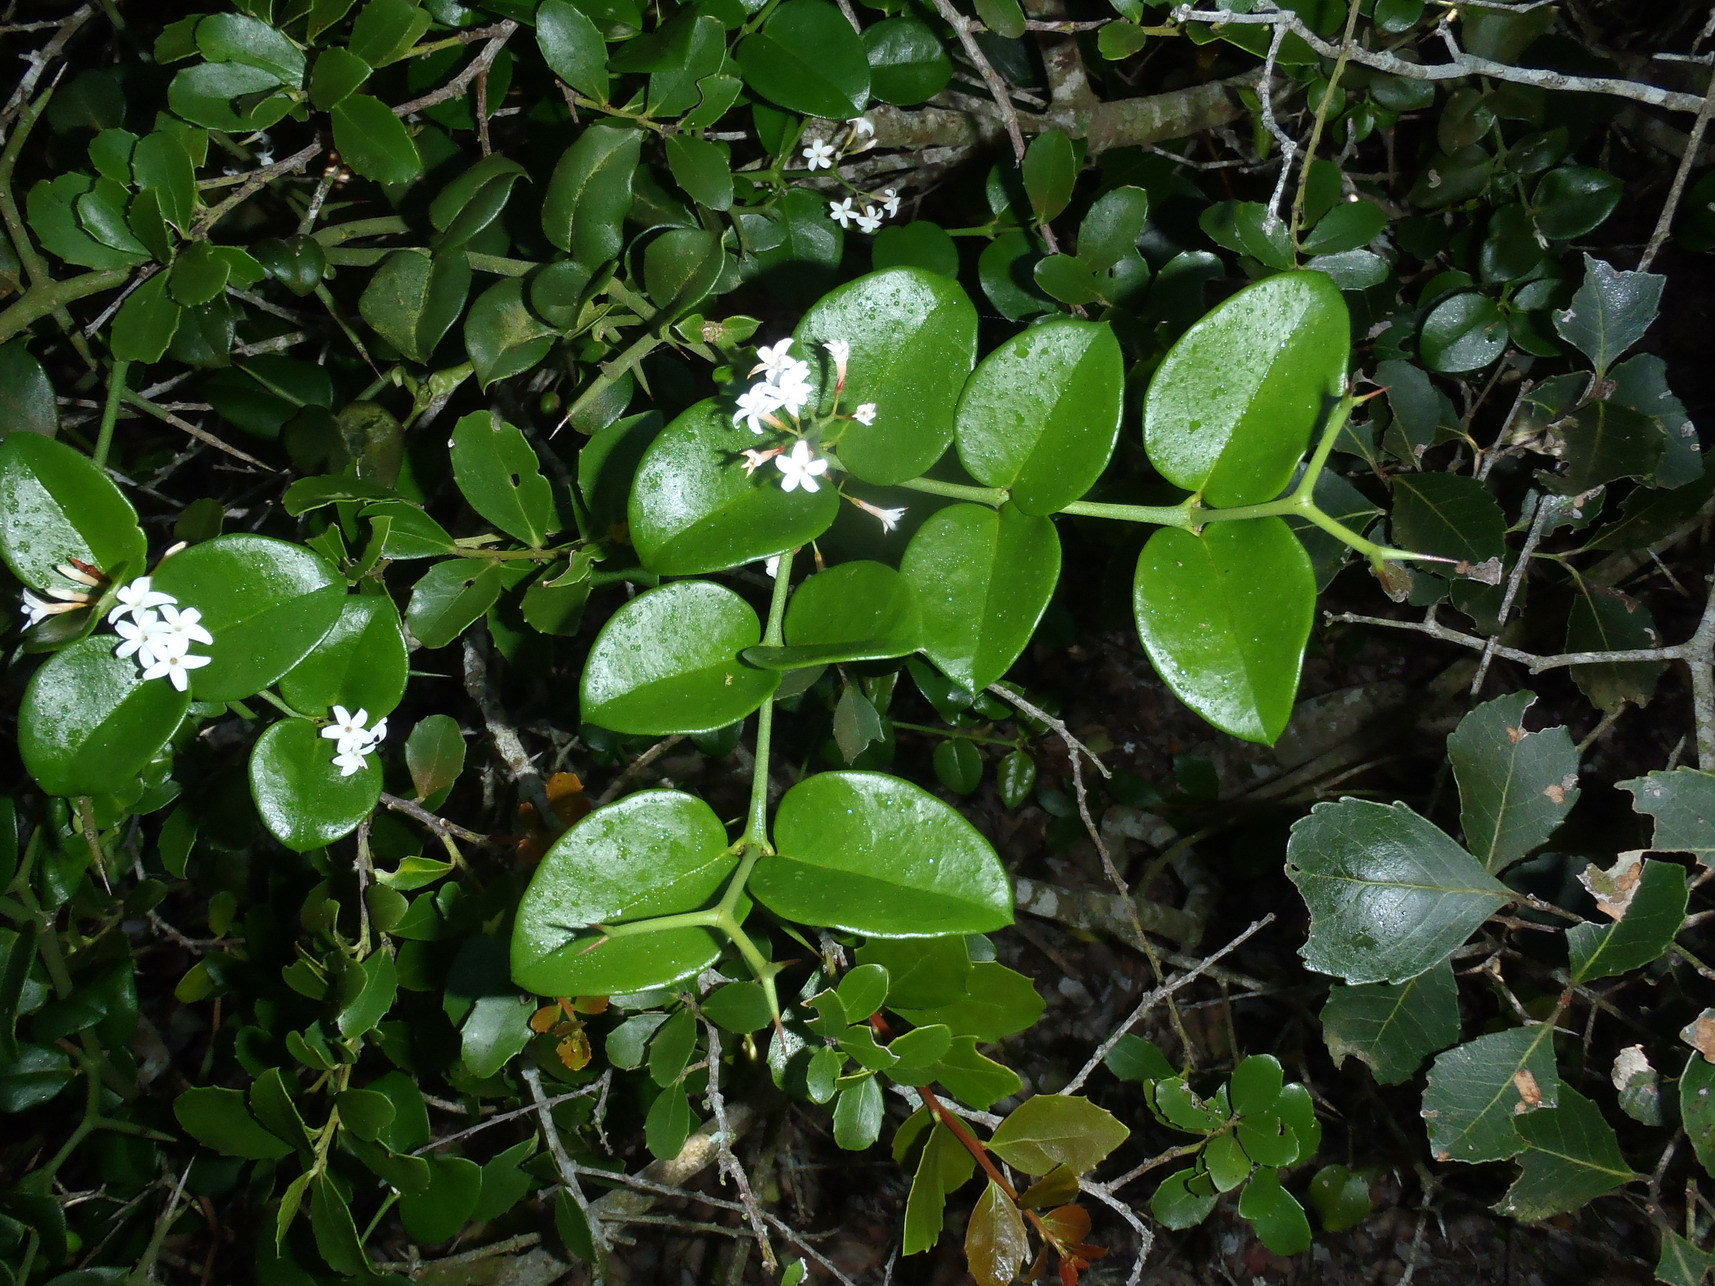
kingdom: Plantae
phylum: Tracheophyta
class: Magnoliopsida
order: Gentianales
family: Apocynaceae
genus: Carissa
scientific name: Carissa bispinosa
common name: Forest num-num
